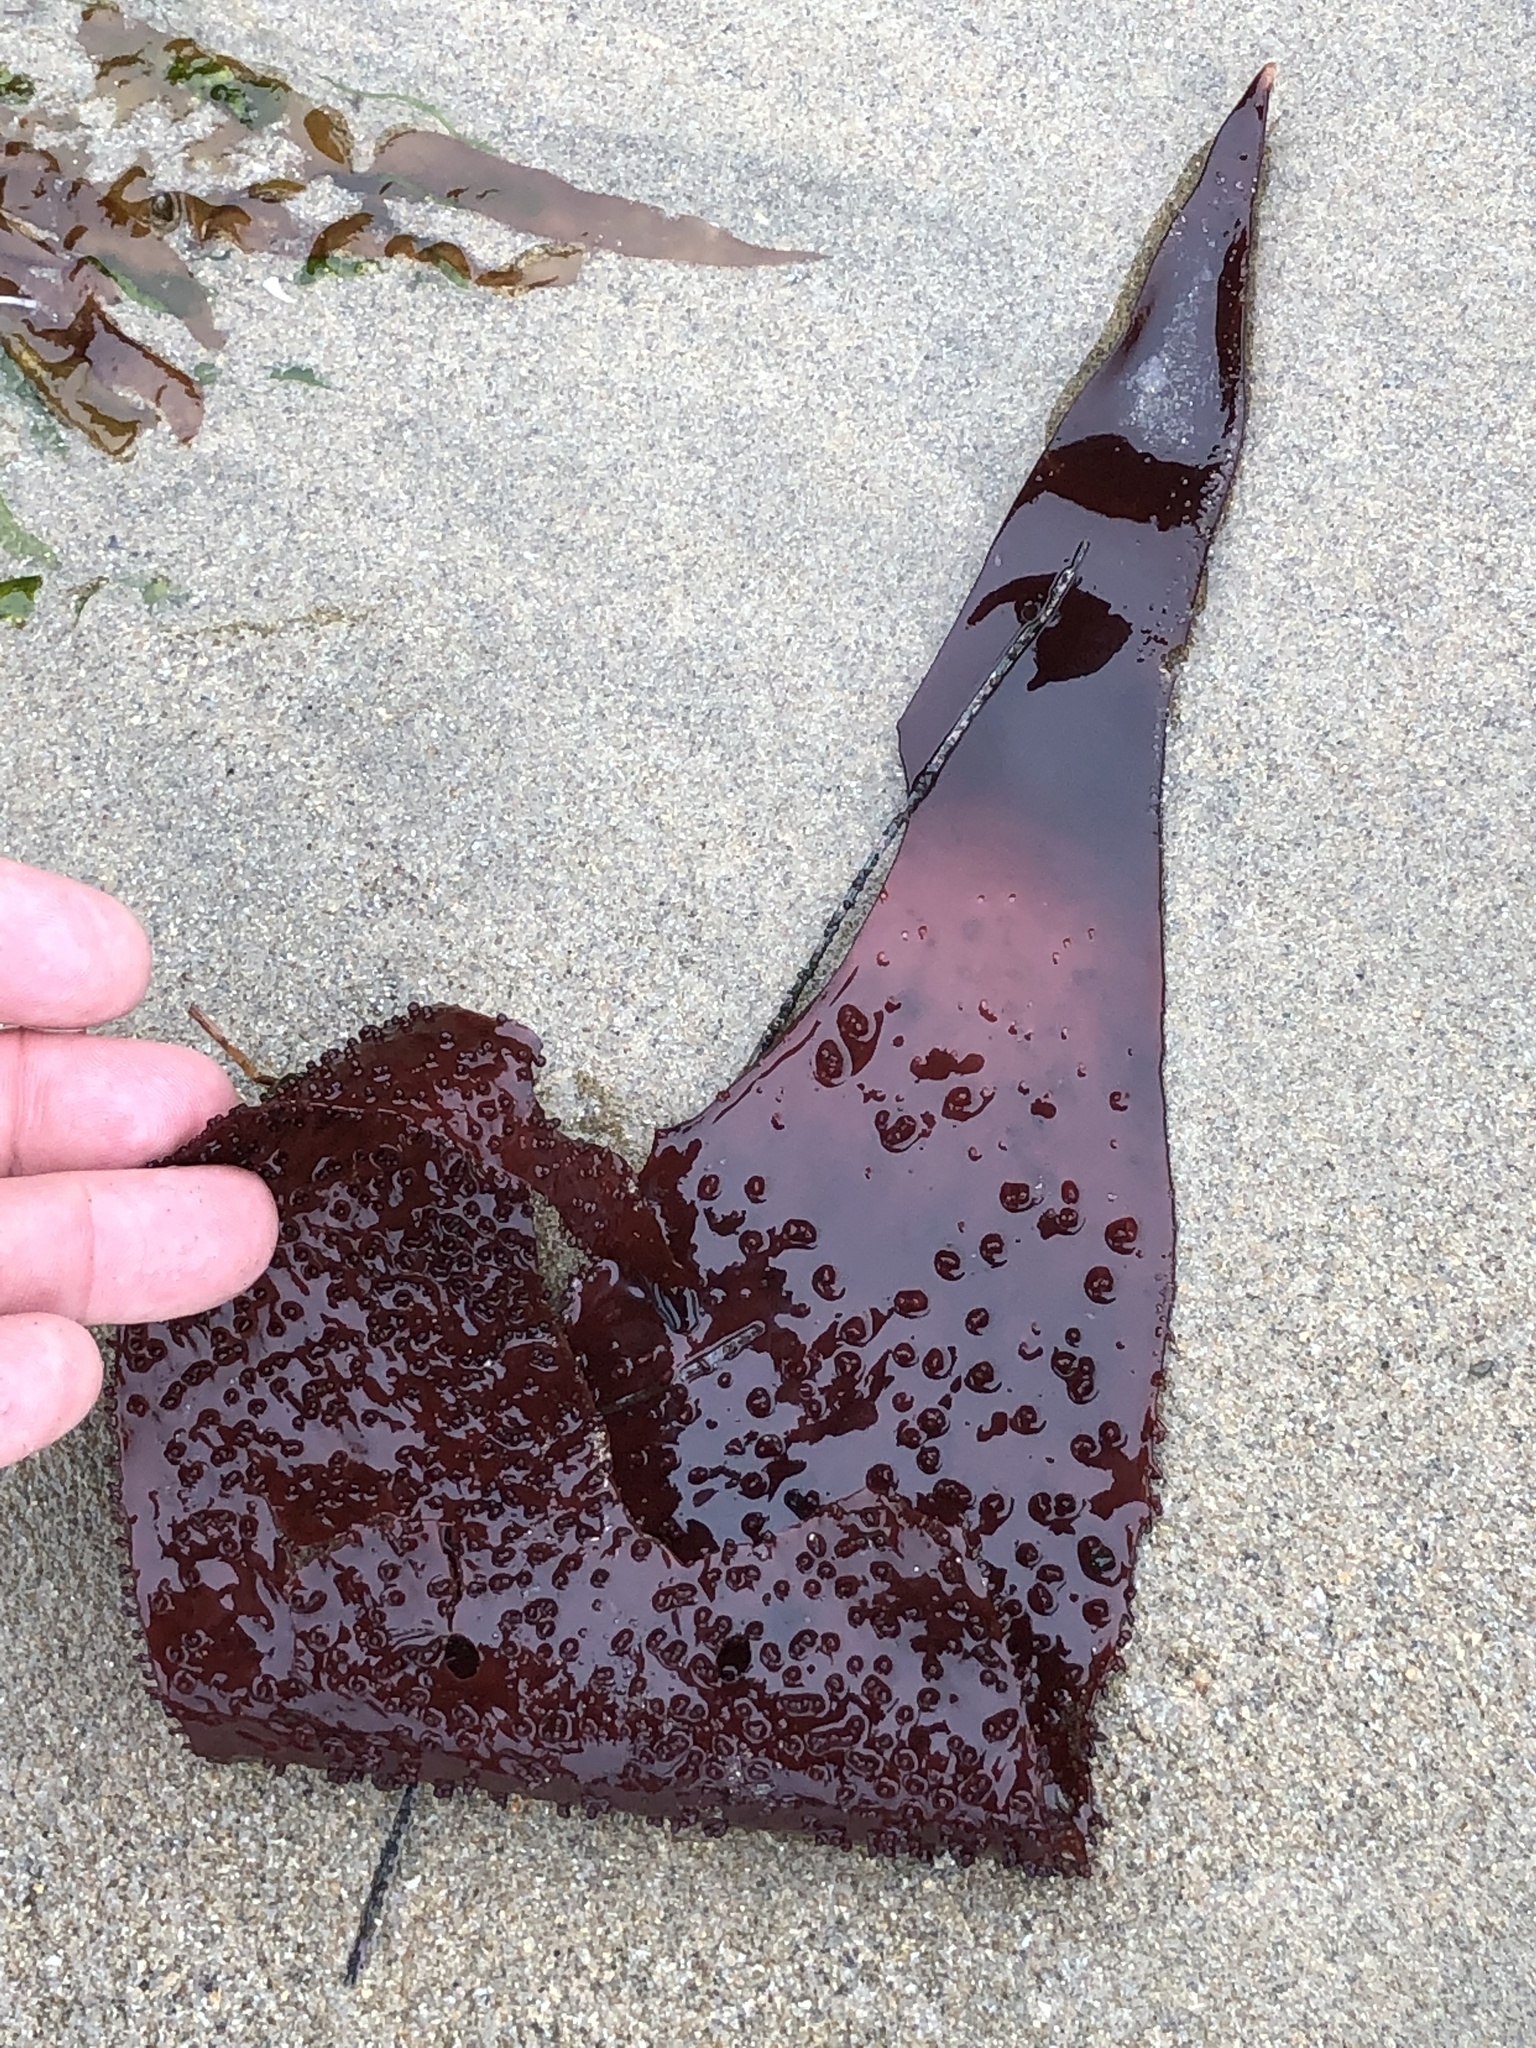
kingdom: Plantae
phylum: Rhodophyta
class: Florideophyceae
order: Gigartinales
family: Gigartinaceae
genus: Chondracanthus
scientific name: Chondracanthus exasperatus
